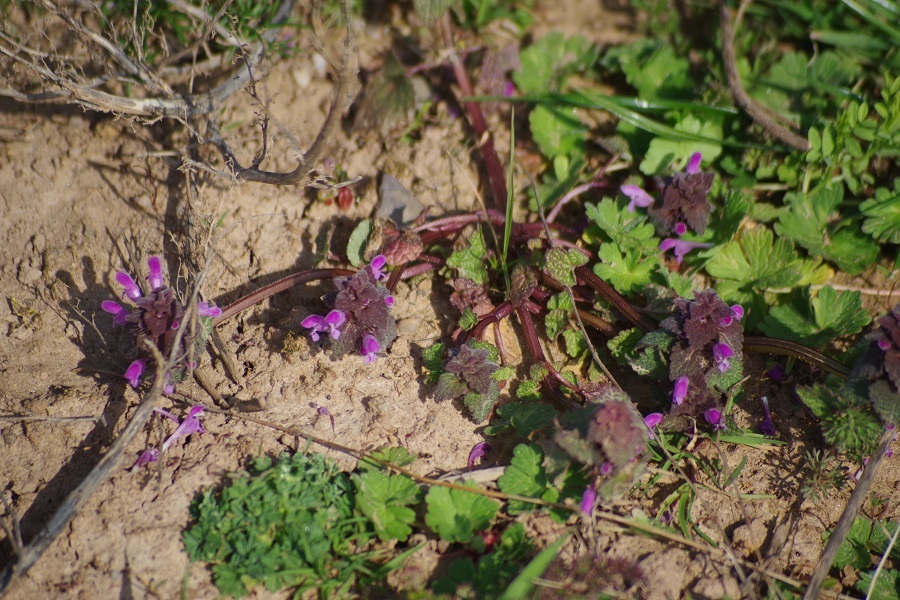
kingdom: Plantae
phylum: Tracheophyta
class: Magnoliopsida
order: Lamiales
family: Lamiaceae
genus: Lamium
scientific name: Lamium purpureum
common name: Red dead-nettle
